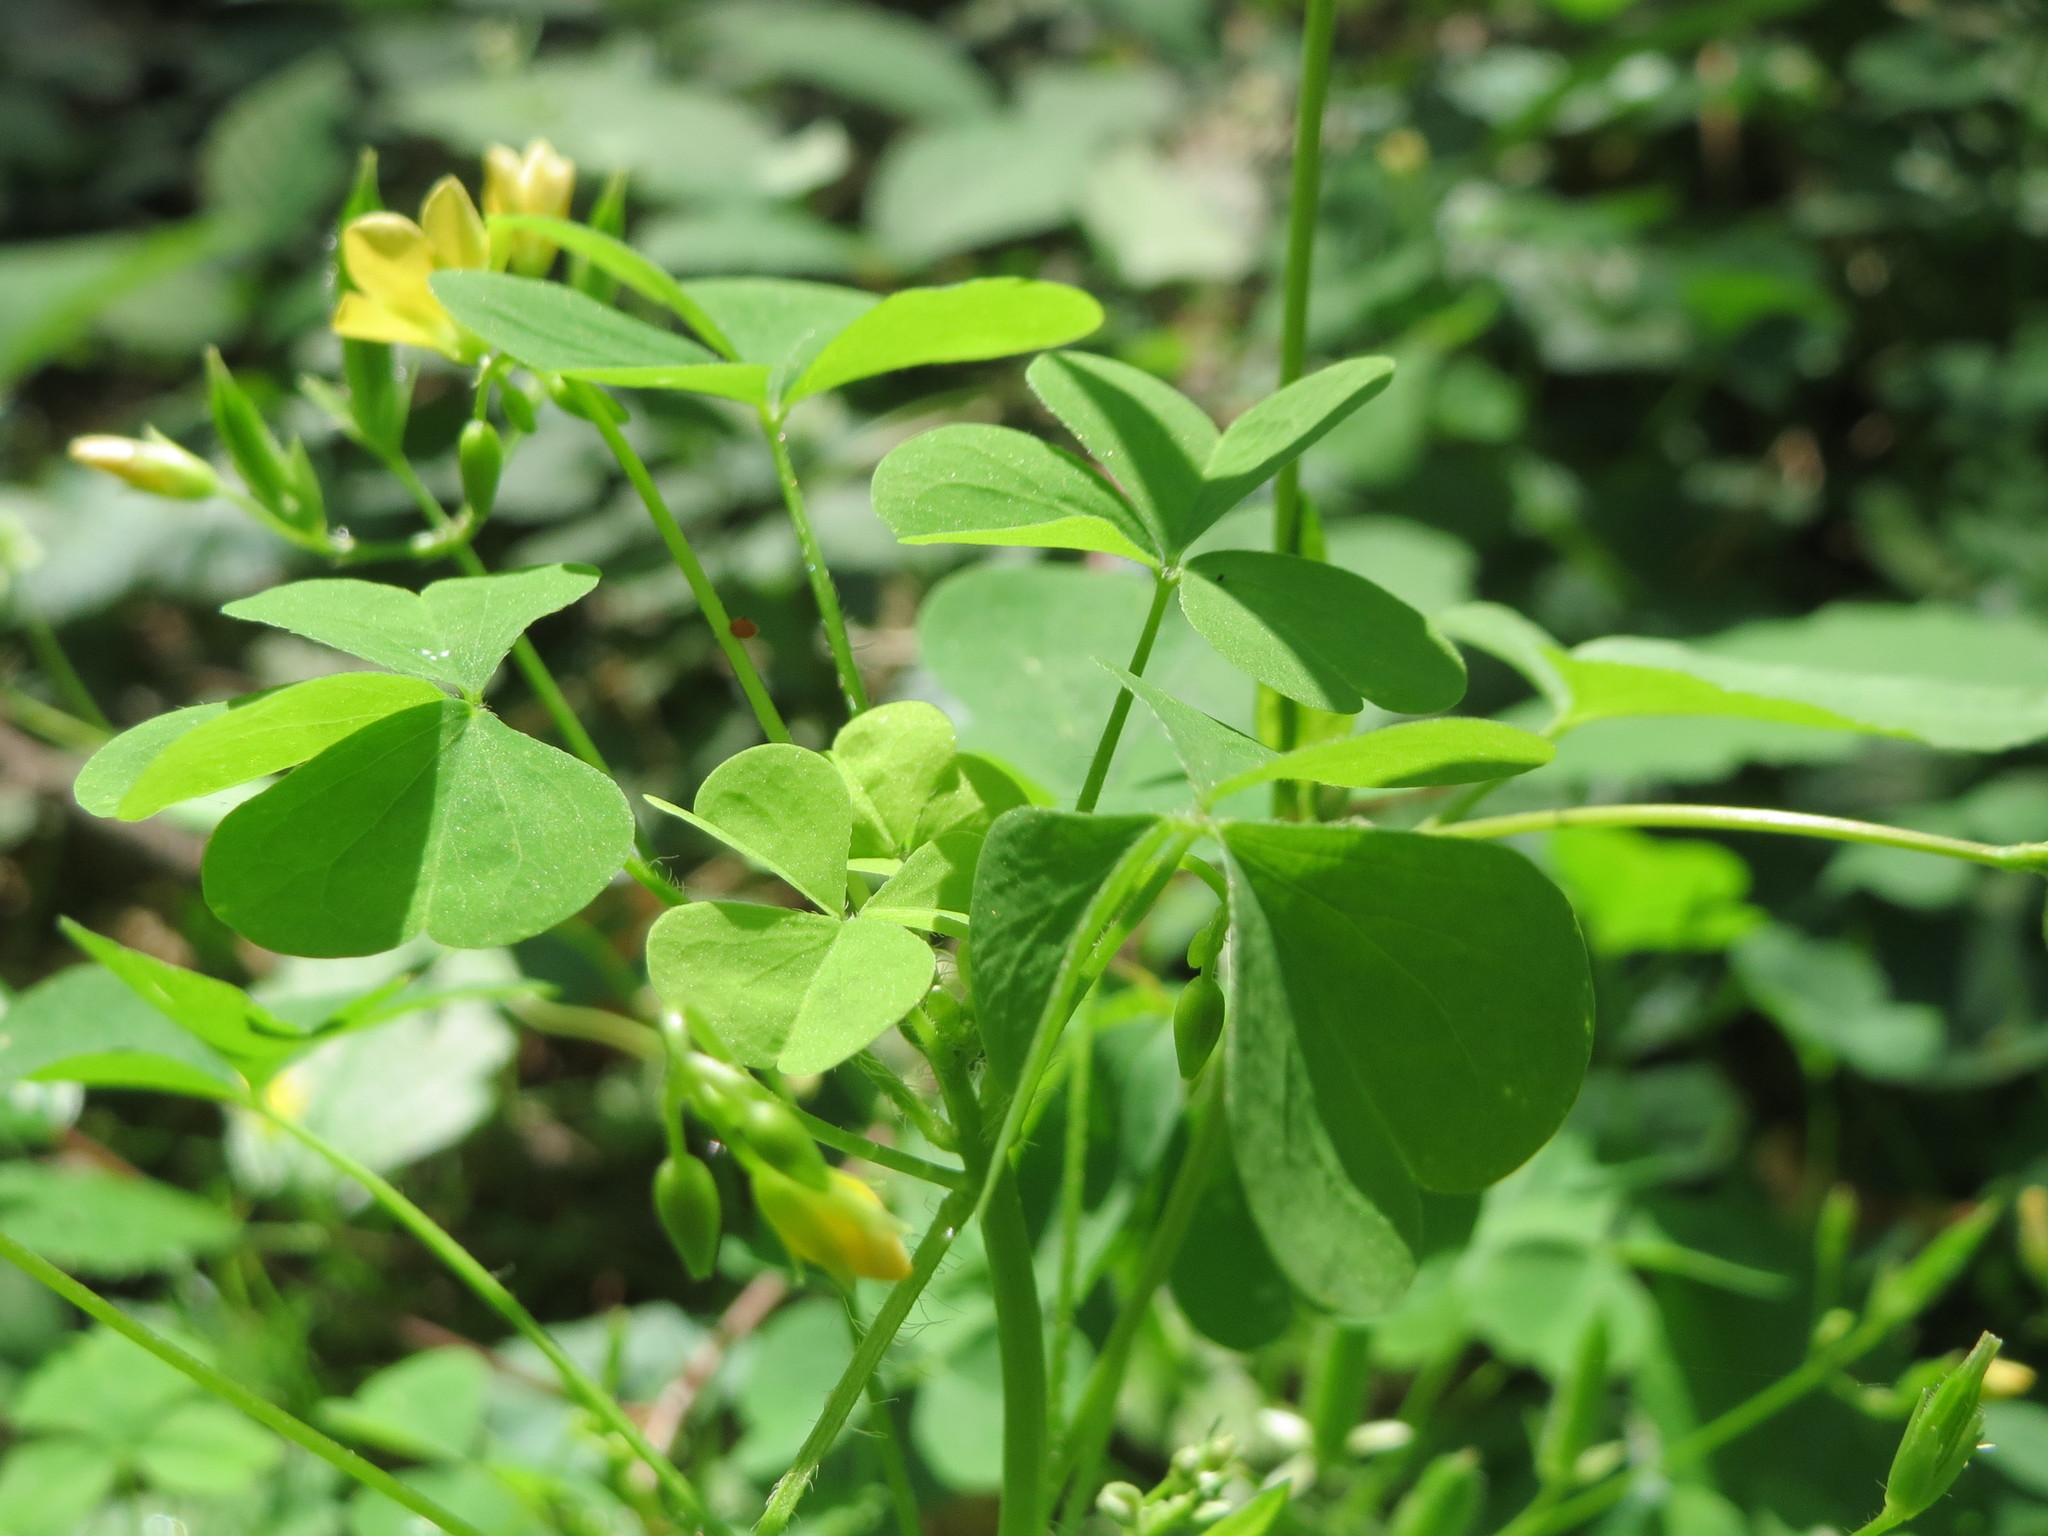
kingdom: Plantae
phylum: Tracheophyta
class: Magnoliopsida
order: Oxalidales
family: Oxalidaceae
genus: Oxalis
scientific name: Oxalis stricta
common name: Upright yellow-sorrel
